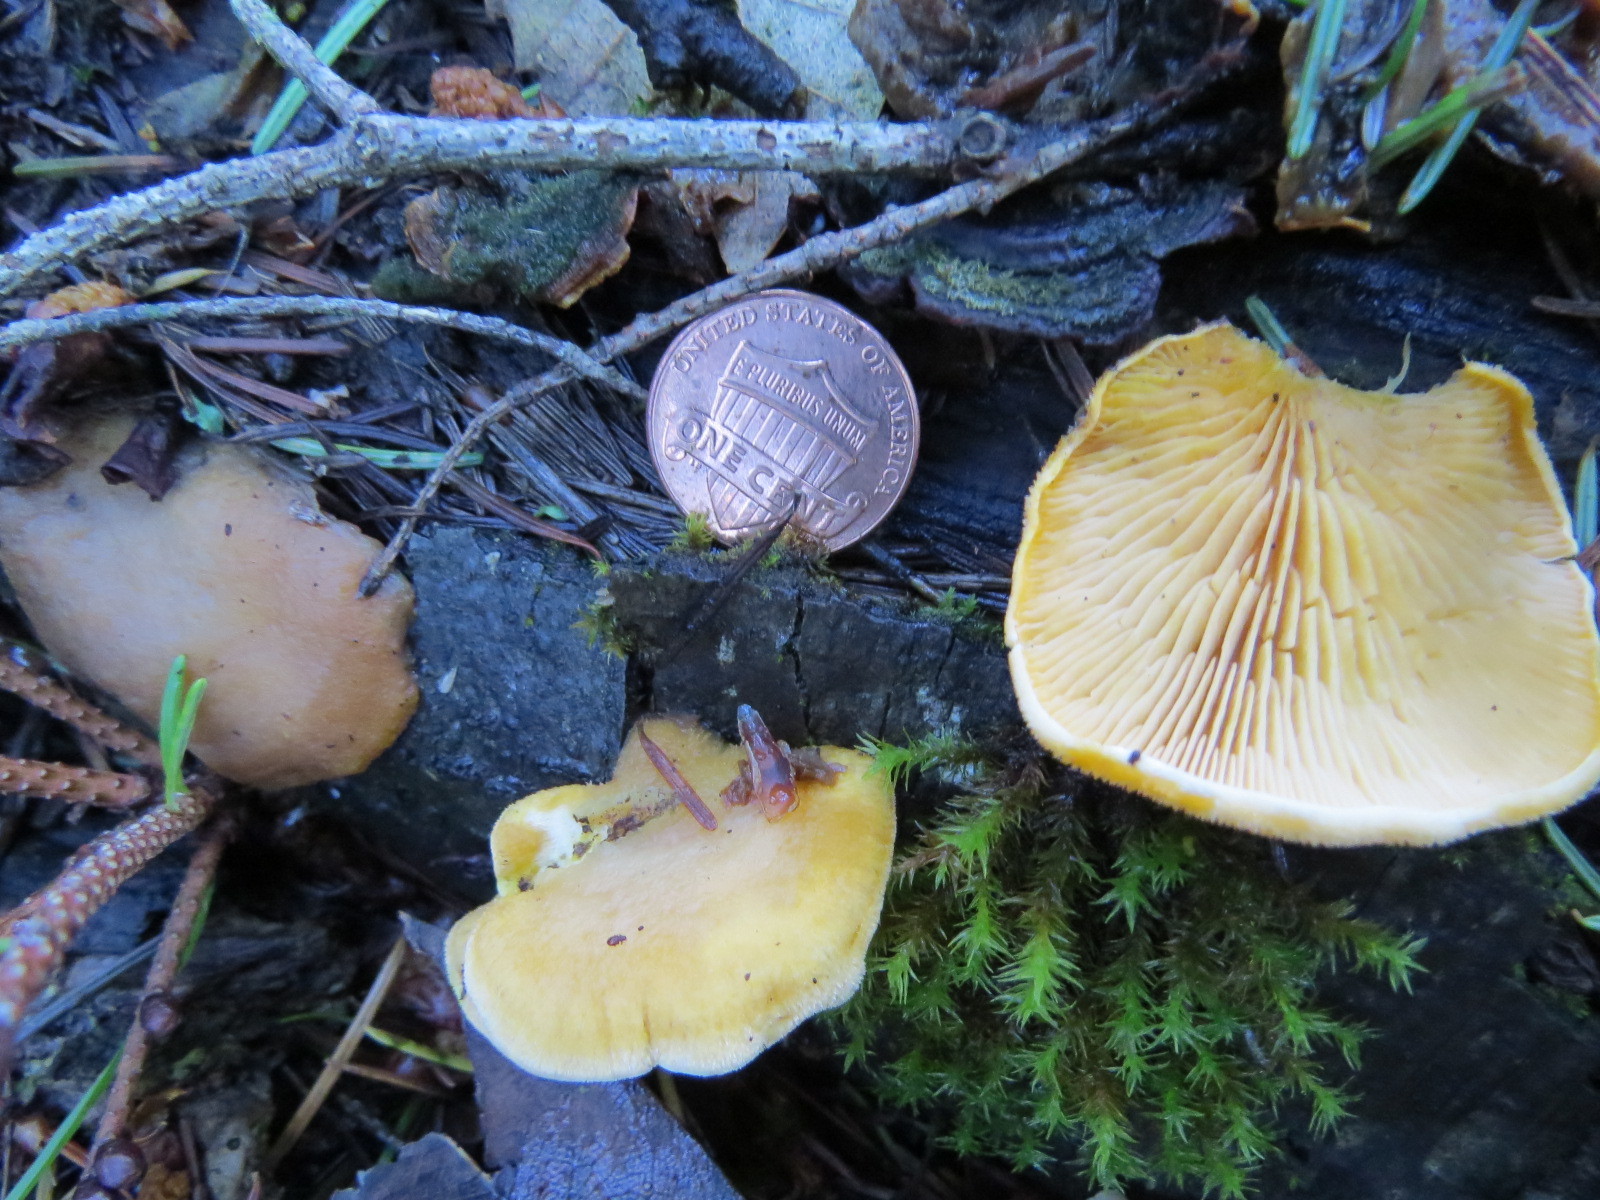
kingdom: Fungi
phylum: Basidiomycota
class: Agaricomycetes
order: Agaricales
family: Phyllotopsidaceae
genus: Phyllotopsis
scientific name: Phyllotopsis nidulans
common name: Orange mock oyster
